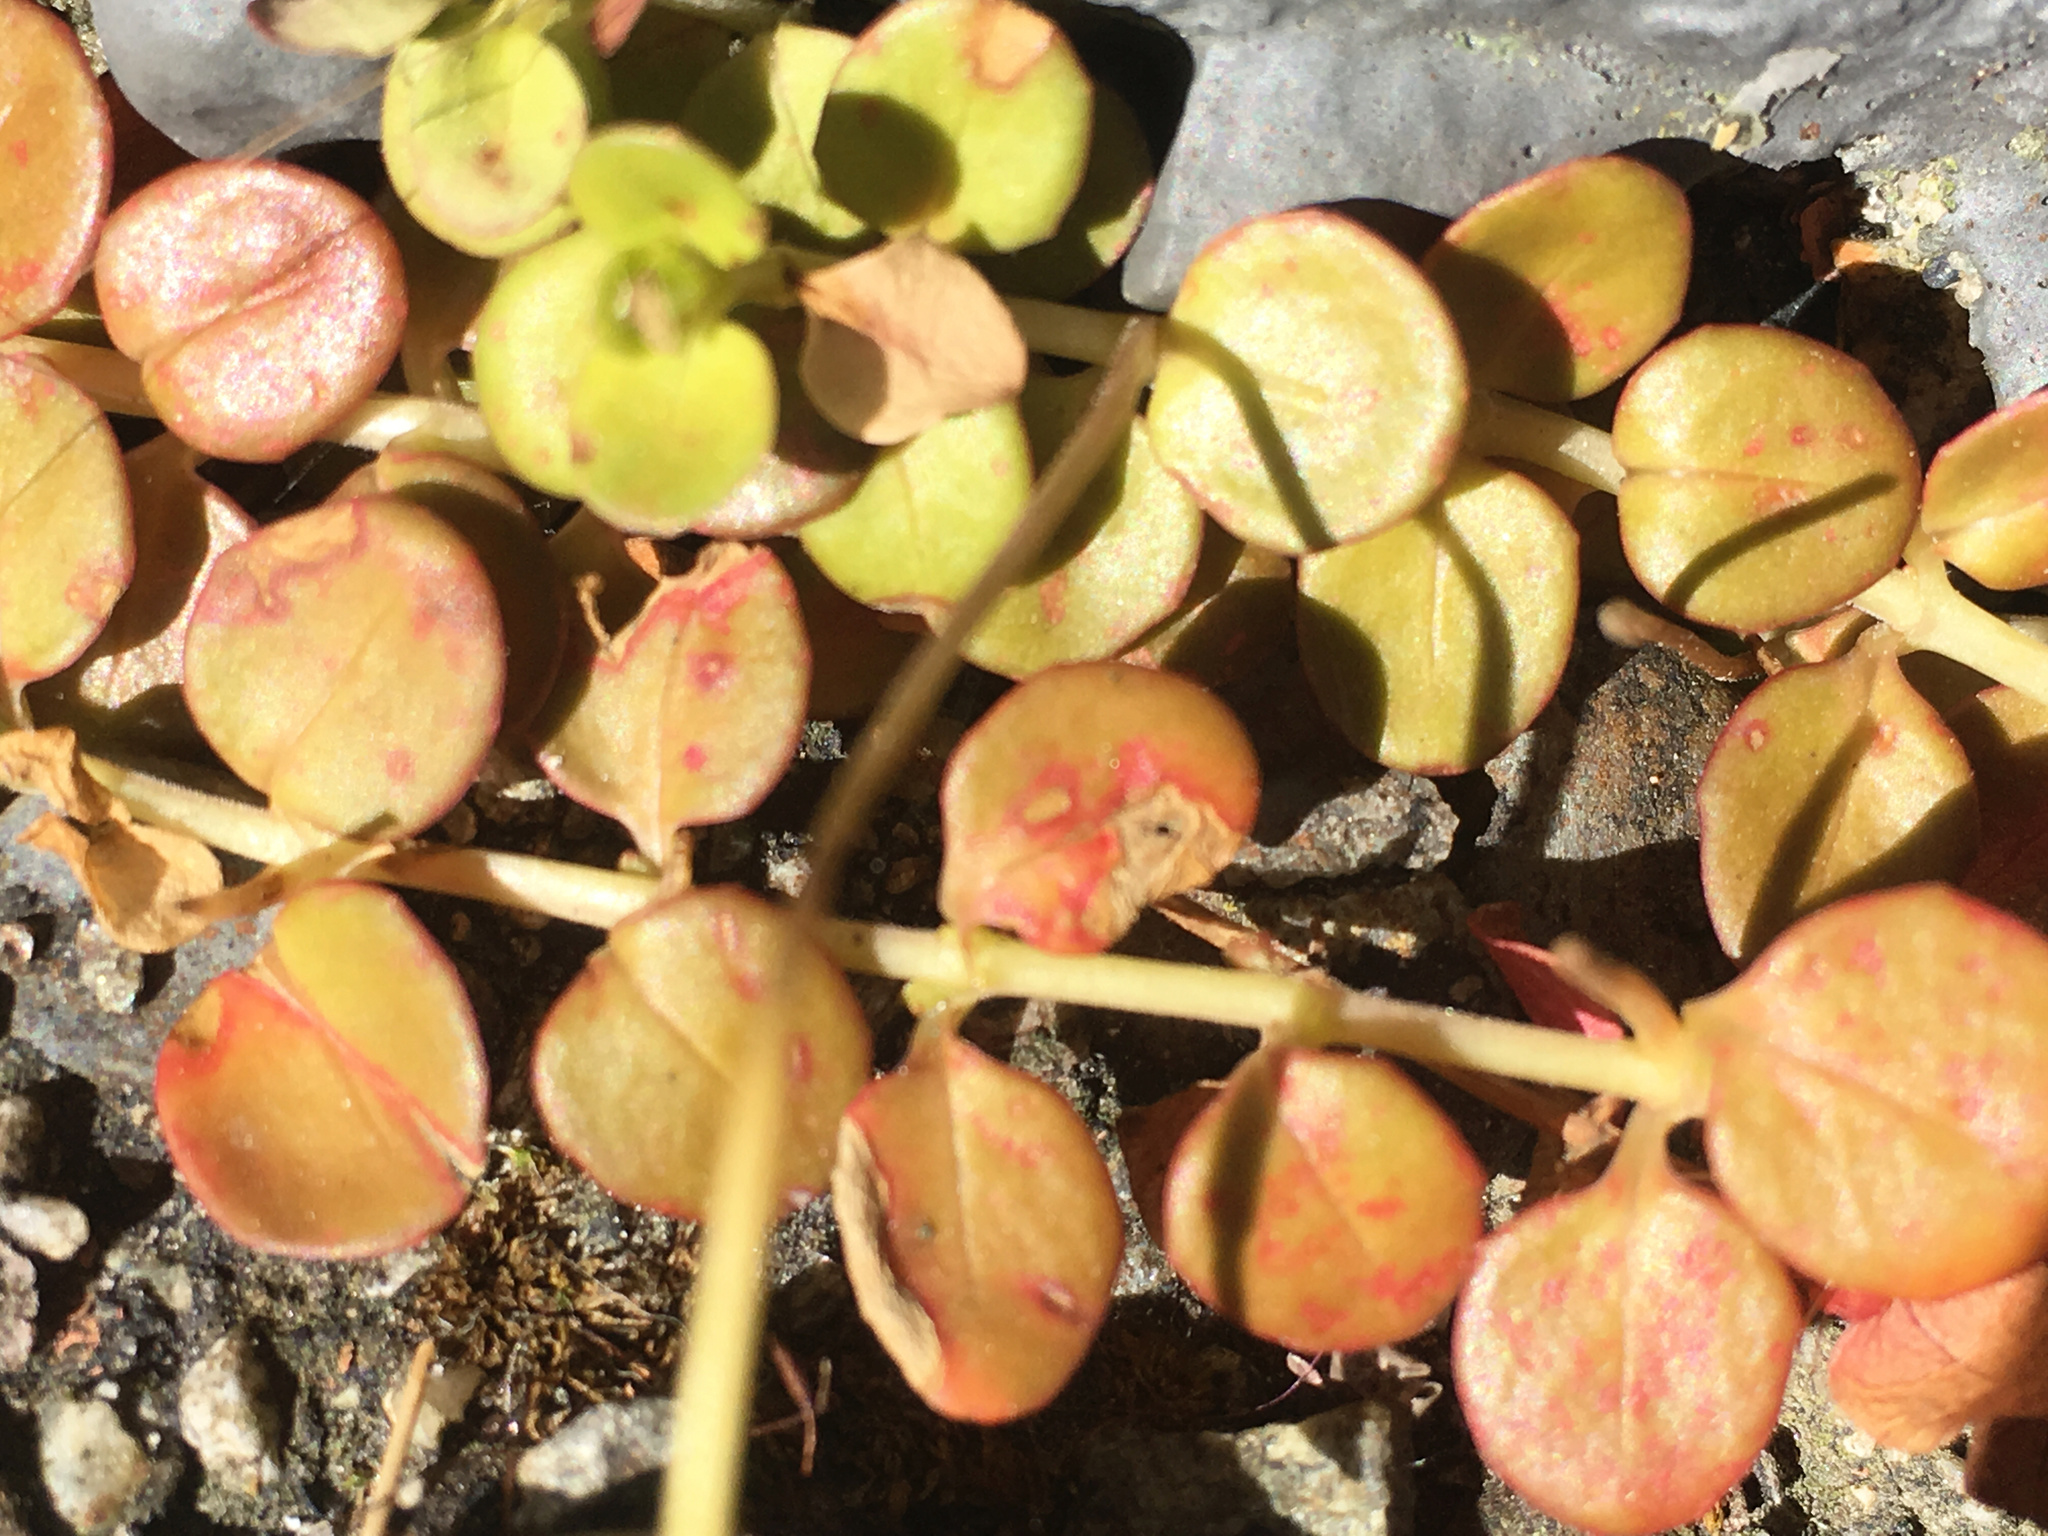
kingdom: Plantae
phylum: Tracheophyta
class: Magnoliopsida
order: Myrtales
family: Onagraceae
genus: Epilobium
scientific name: Epilobium brunnescens
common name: New zealand willowherb
